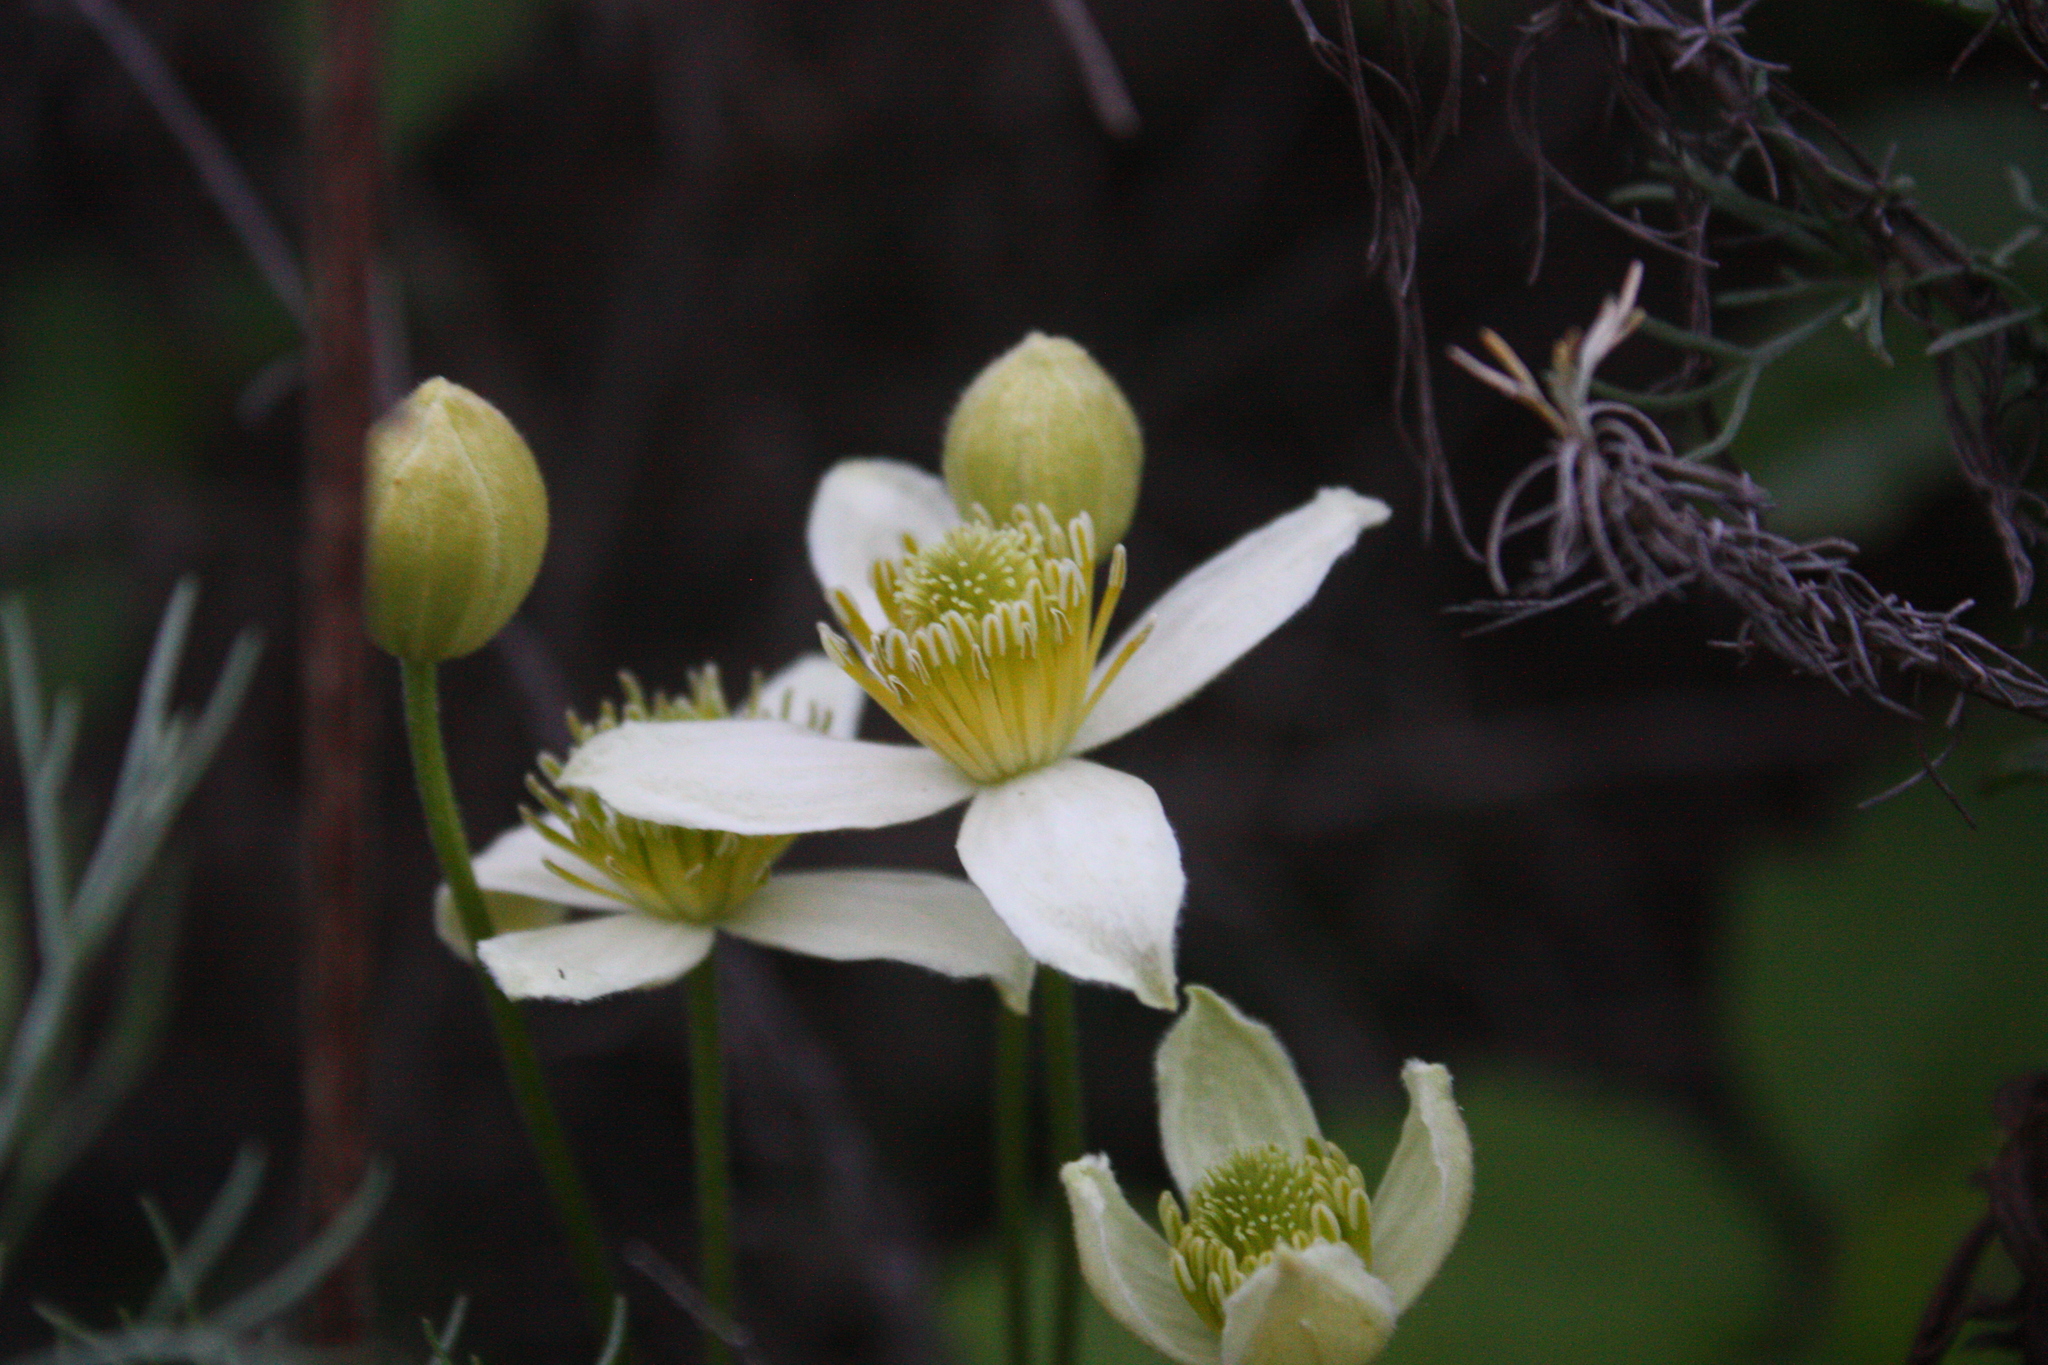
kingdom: Plantae
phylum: Tracheophyta
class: Magnoliopsida
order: Ranunculales
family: Ranunculaceae
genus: Clematis
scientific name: Clematis lasiantha
